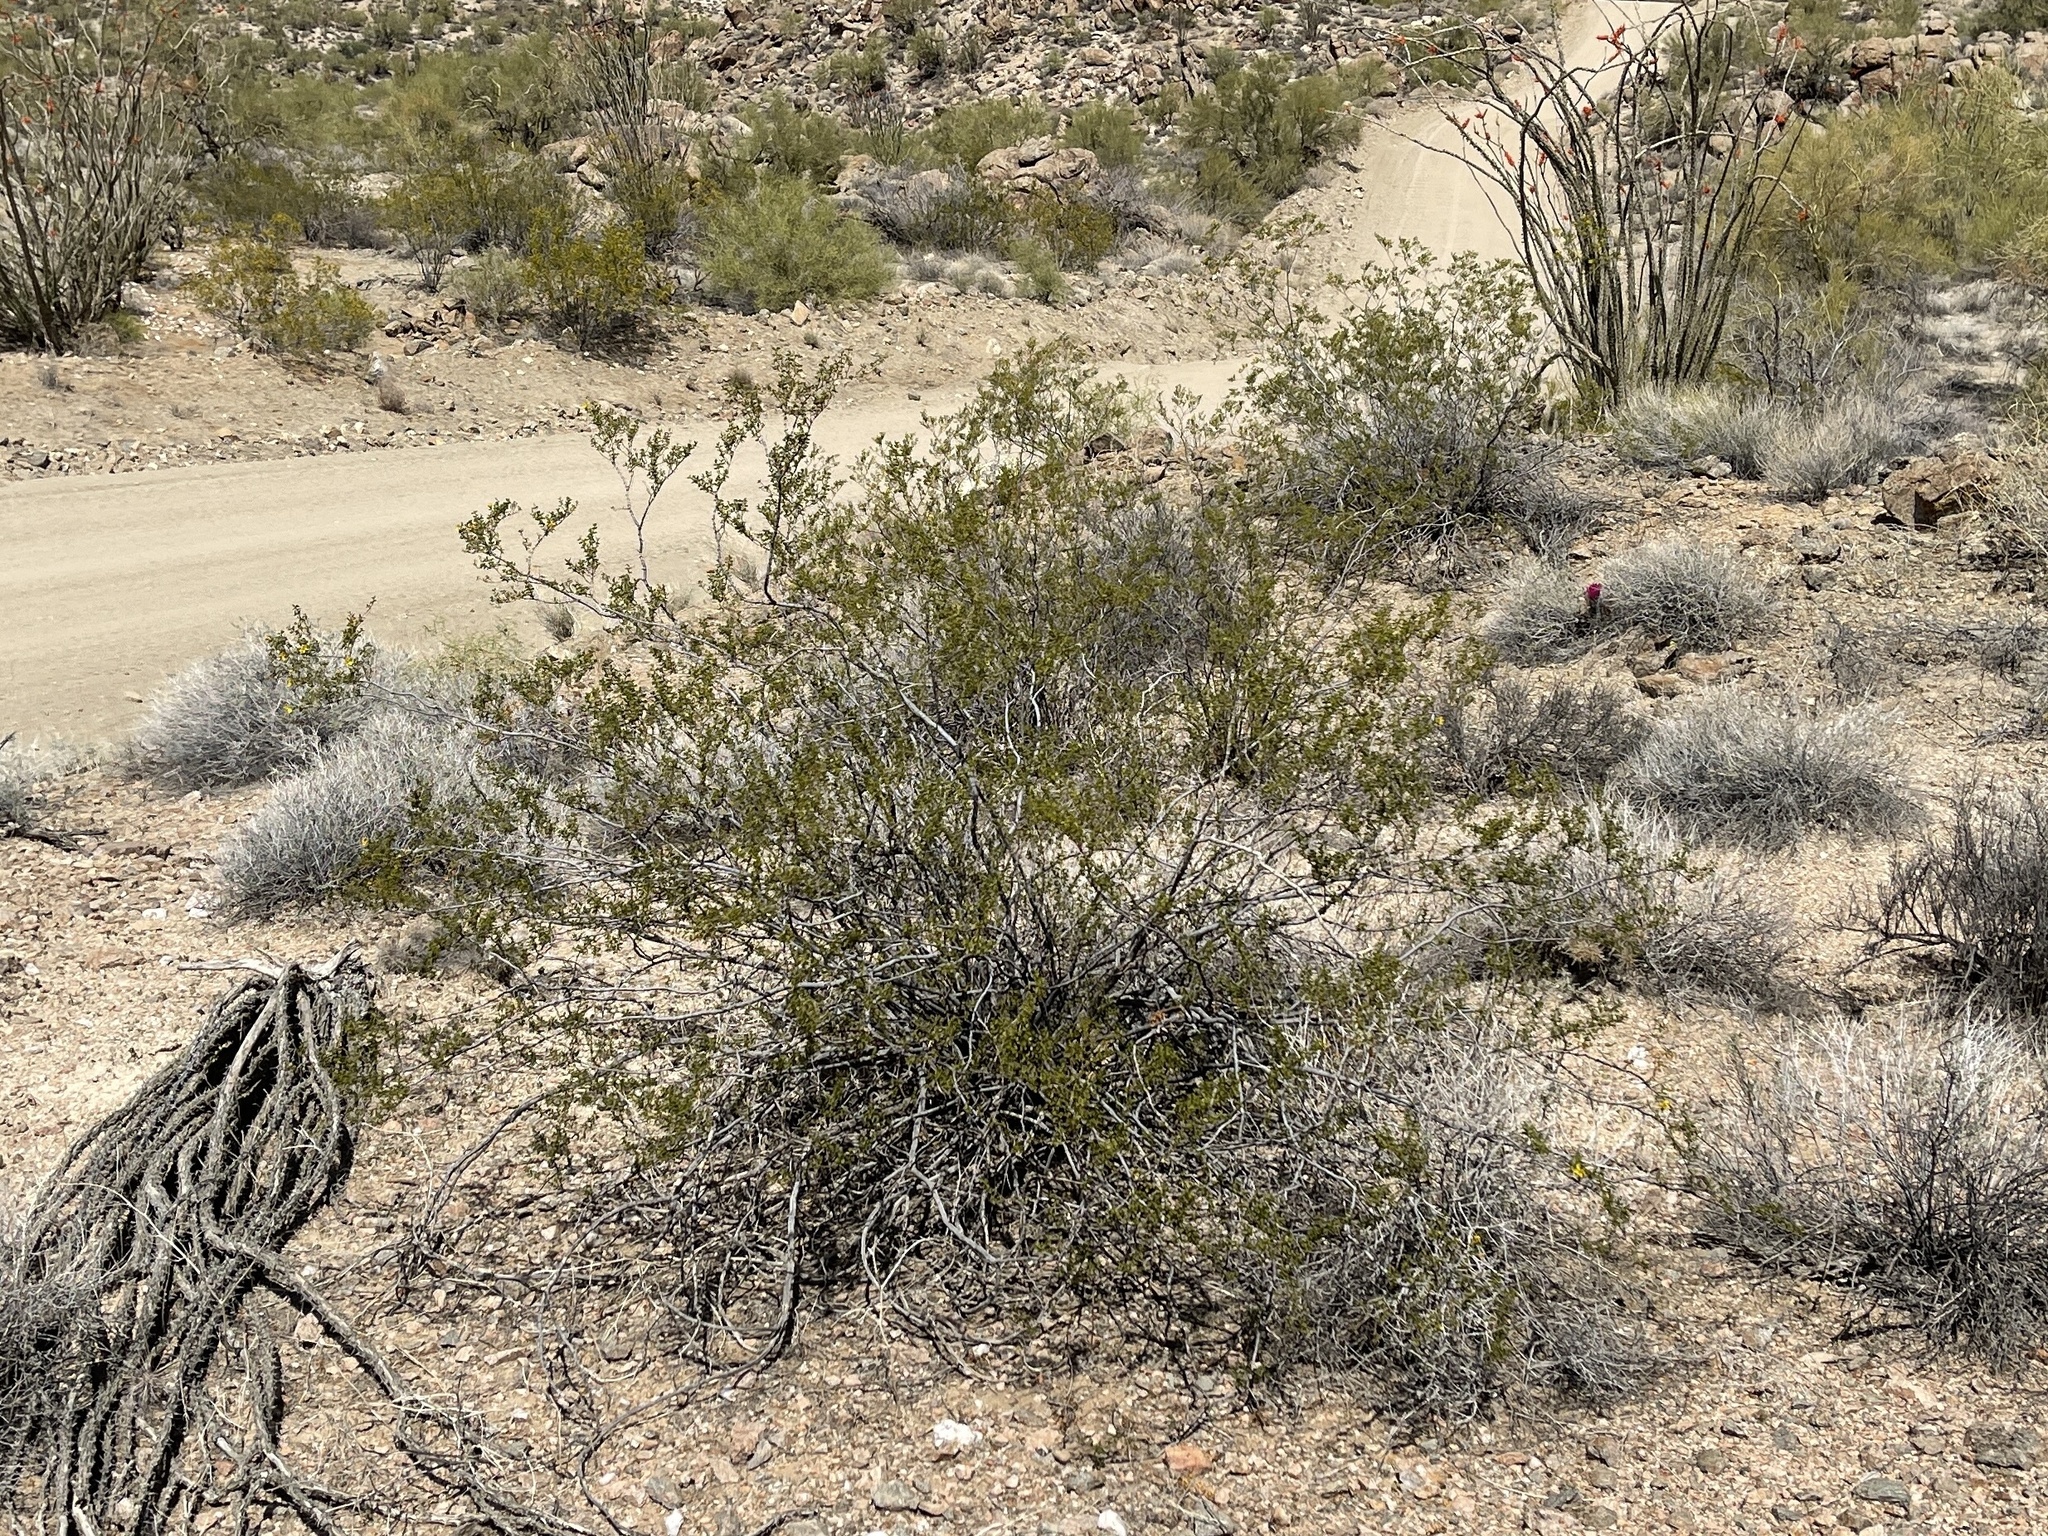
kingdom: Plantae
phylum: Tracheophyta
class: Magnoliopsida
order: Zygophyllales
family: Zygophyllaceae
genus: Larrea
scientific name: Larrea tridentata
